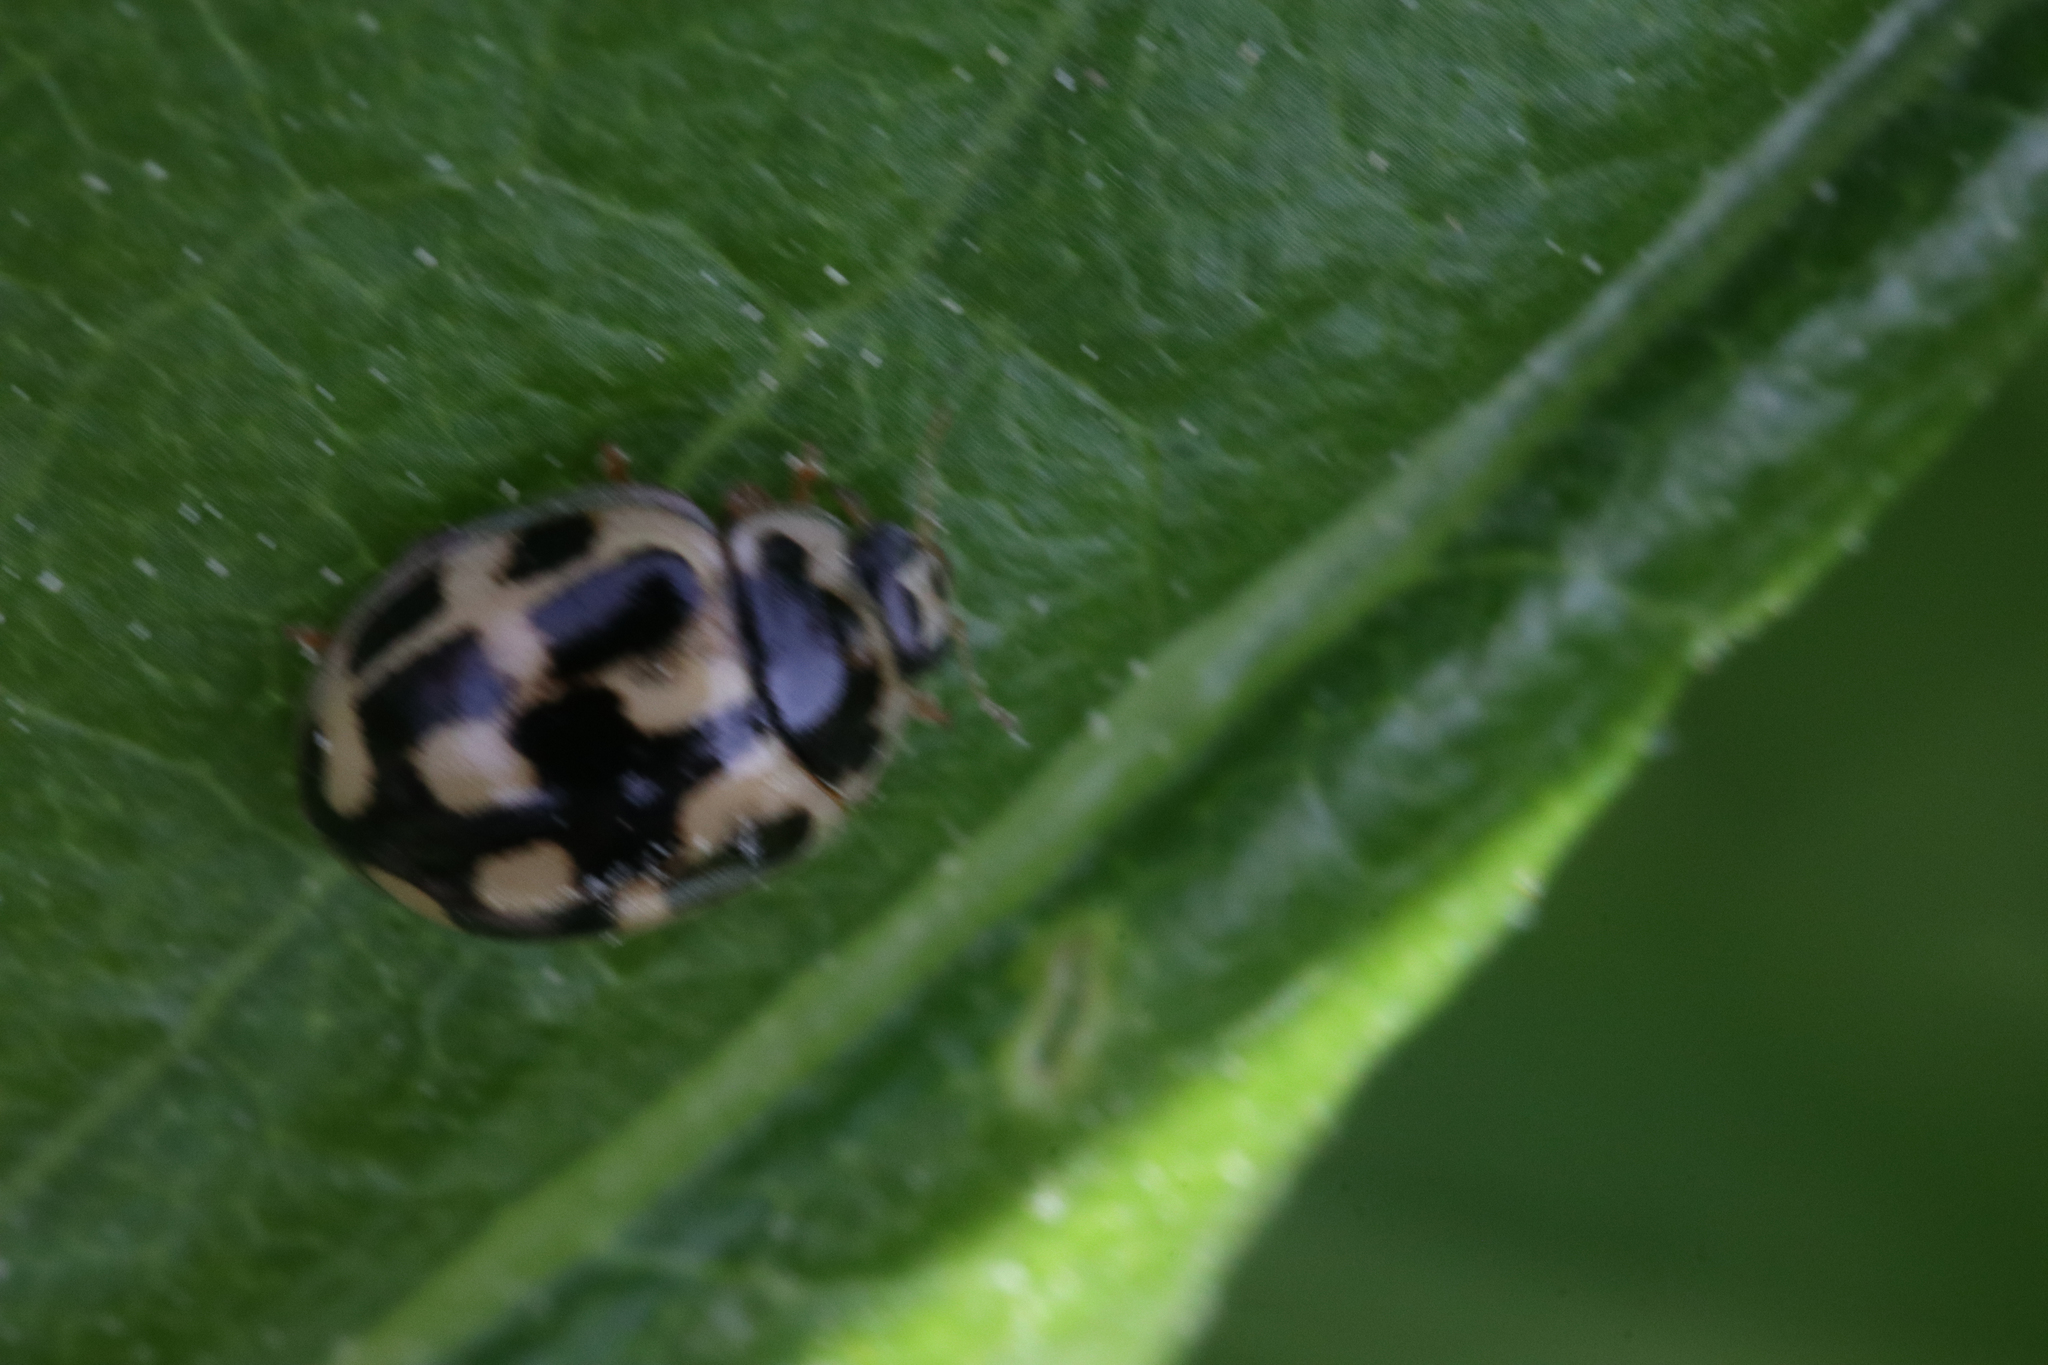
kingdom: Animalia
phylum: Arthropoda
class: Insecta
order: Coleoptera
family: Coccinellidae
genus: Propylaea
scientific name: Propylaea quatuordecimpunctata
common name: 14-spotted ladybird beetle
